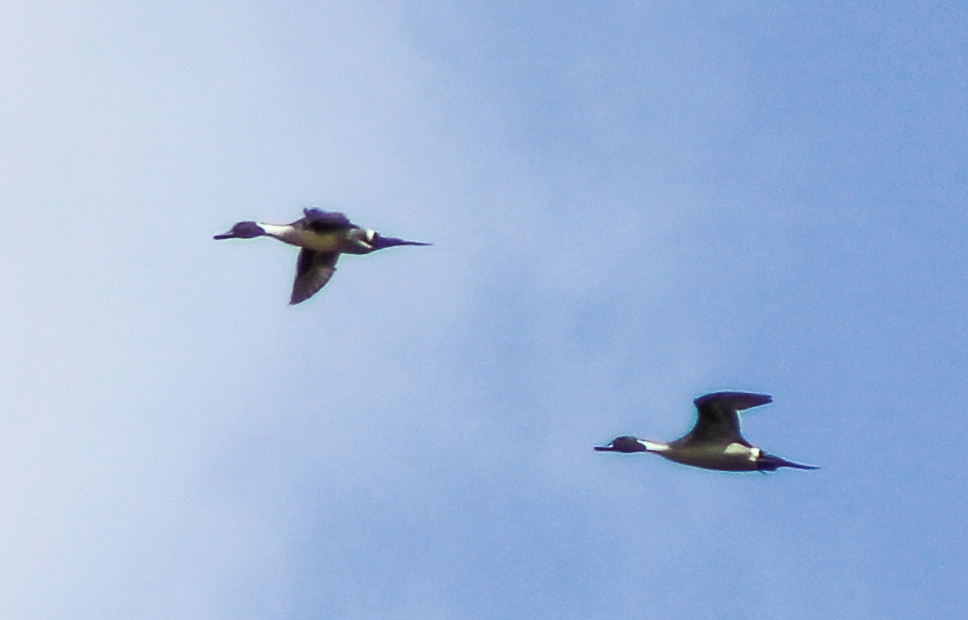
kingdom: Animalia
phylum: Chordata
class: Aves
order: Anseriformes
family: Anatidae
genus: Anas
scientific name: Anas acuta
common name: Northern pintail
